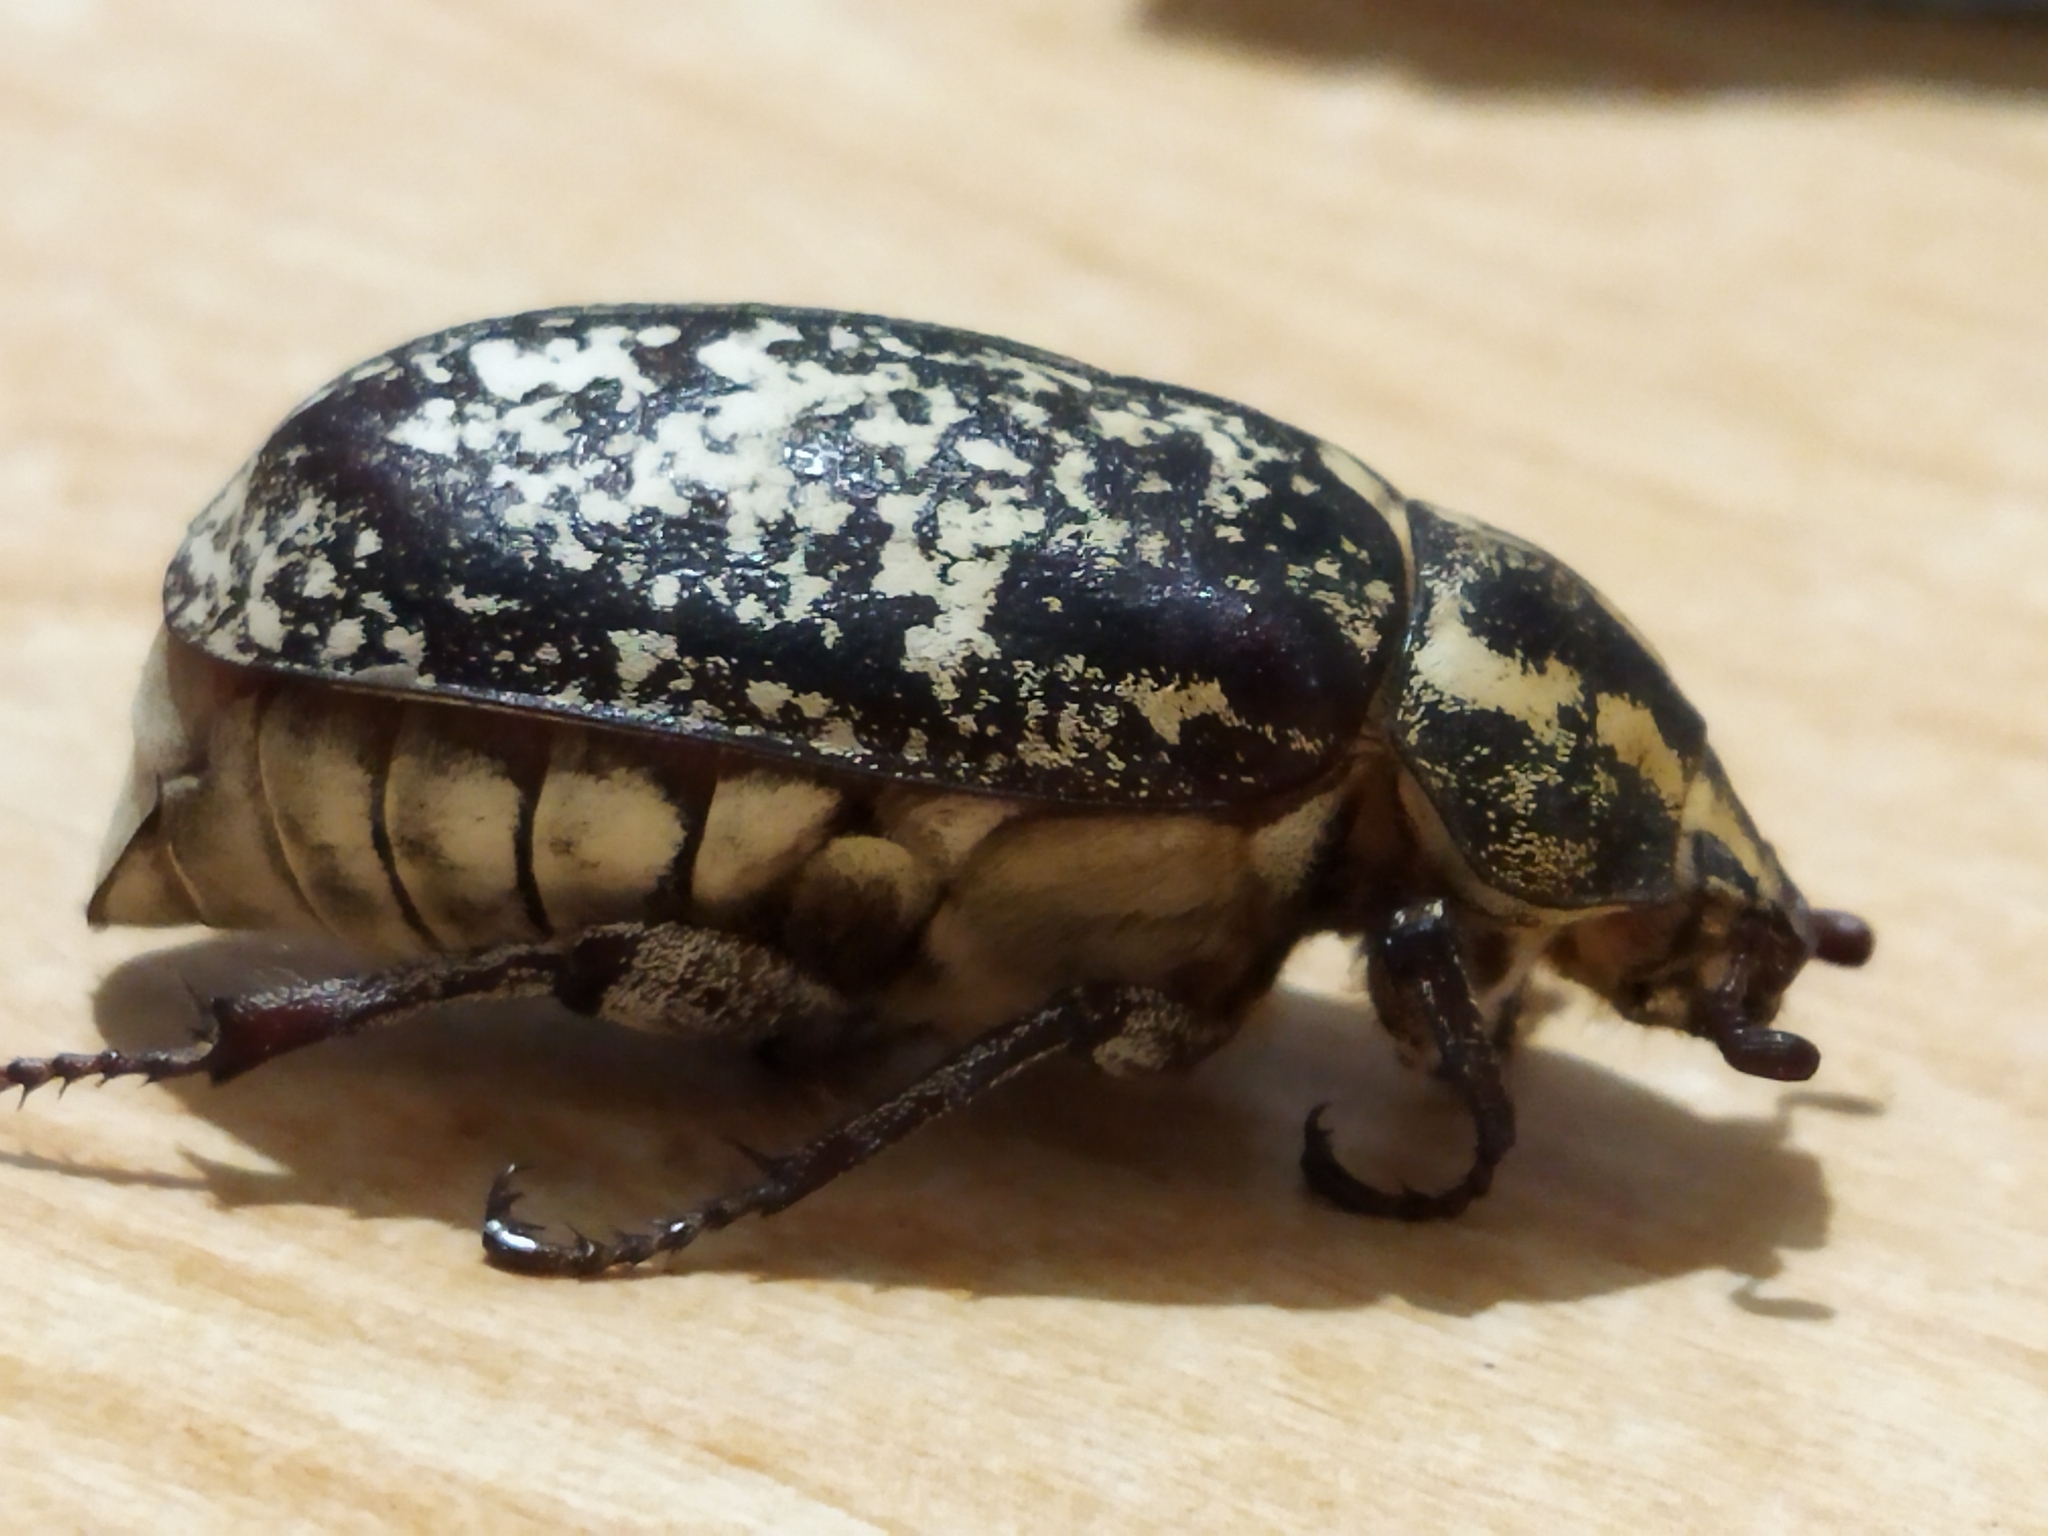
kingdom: Animalia
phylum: Arthropoda
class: Insecta
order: Coleoptera
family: Scarabaeidae
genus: Polyphylla
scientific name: Polyphylla fullo
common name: Pine chafer
